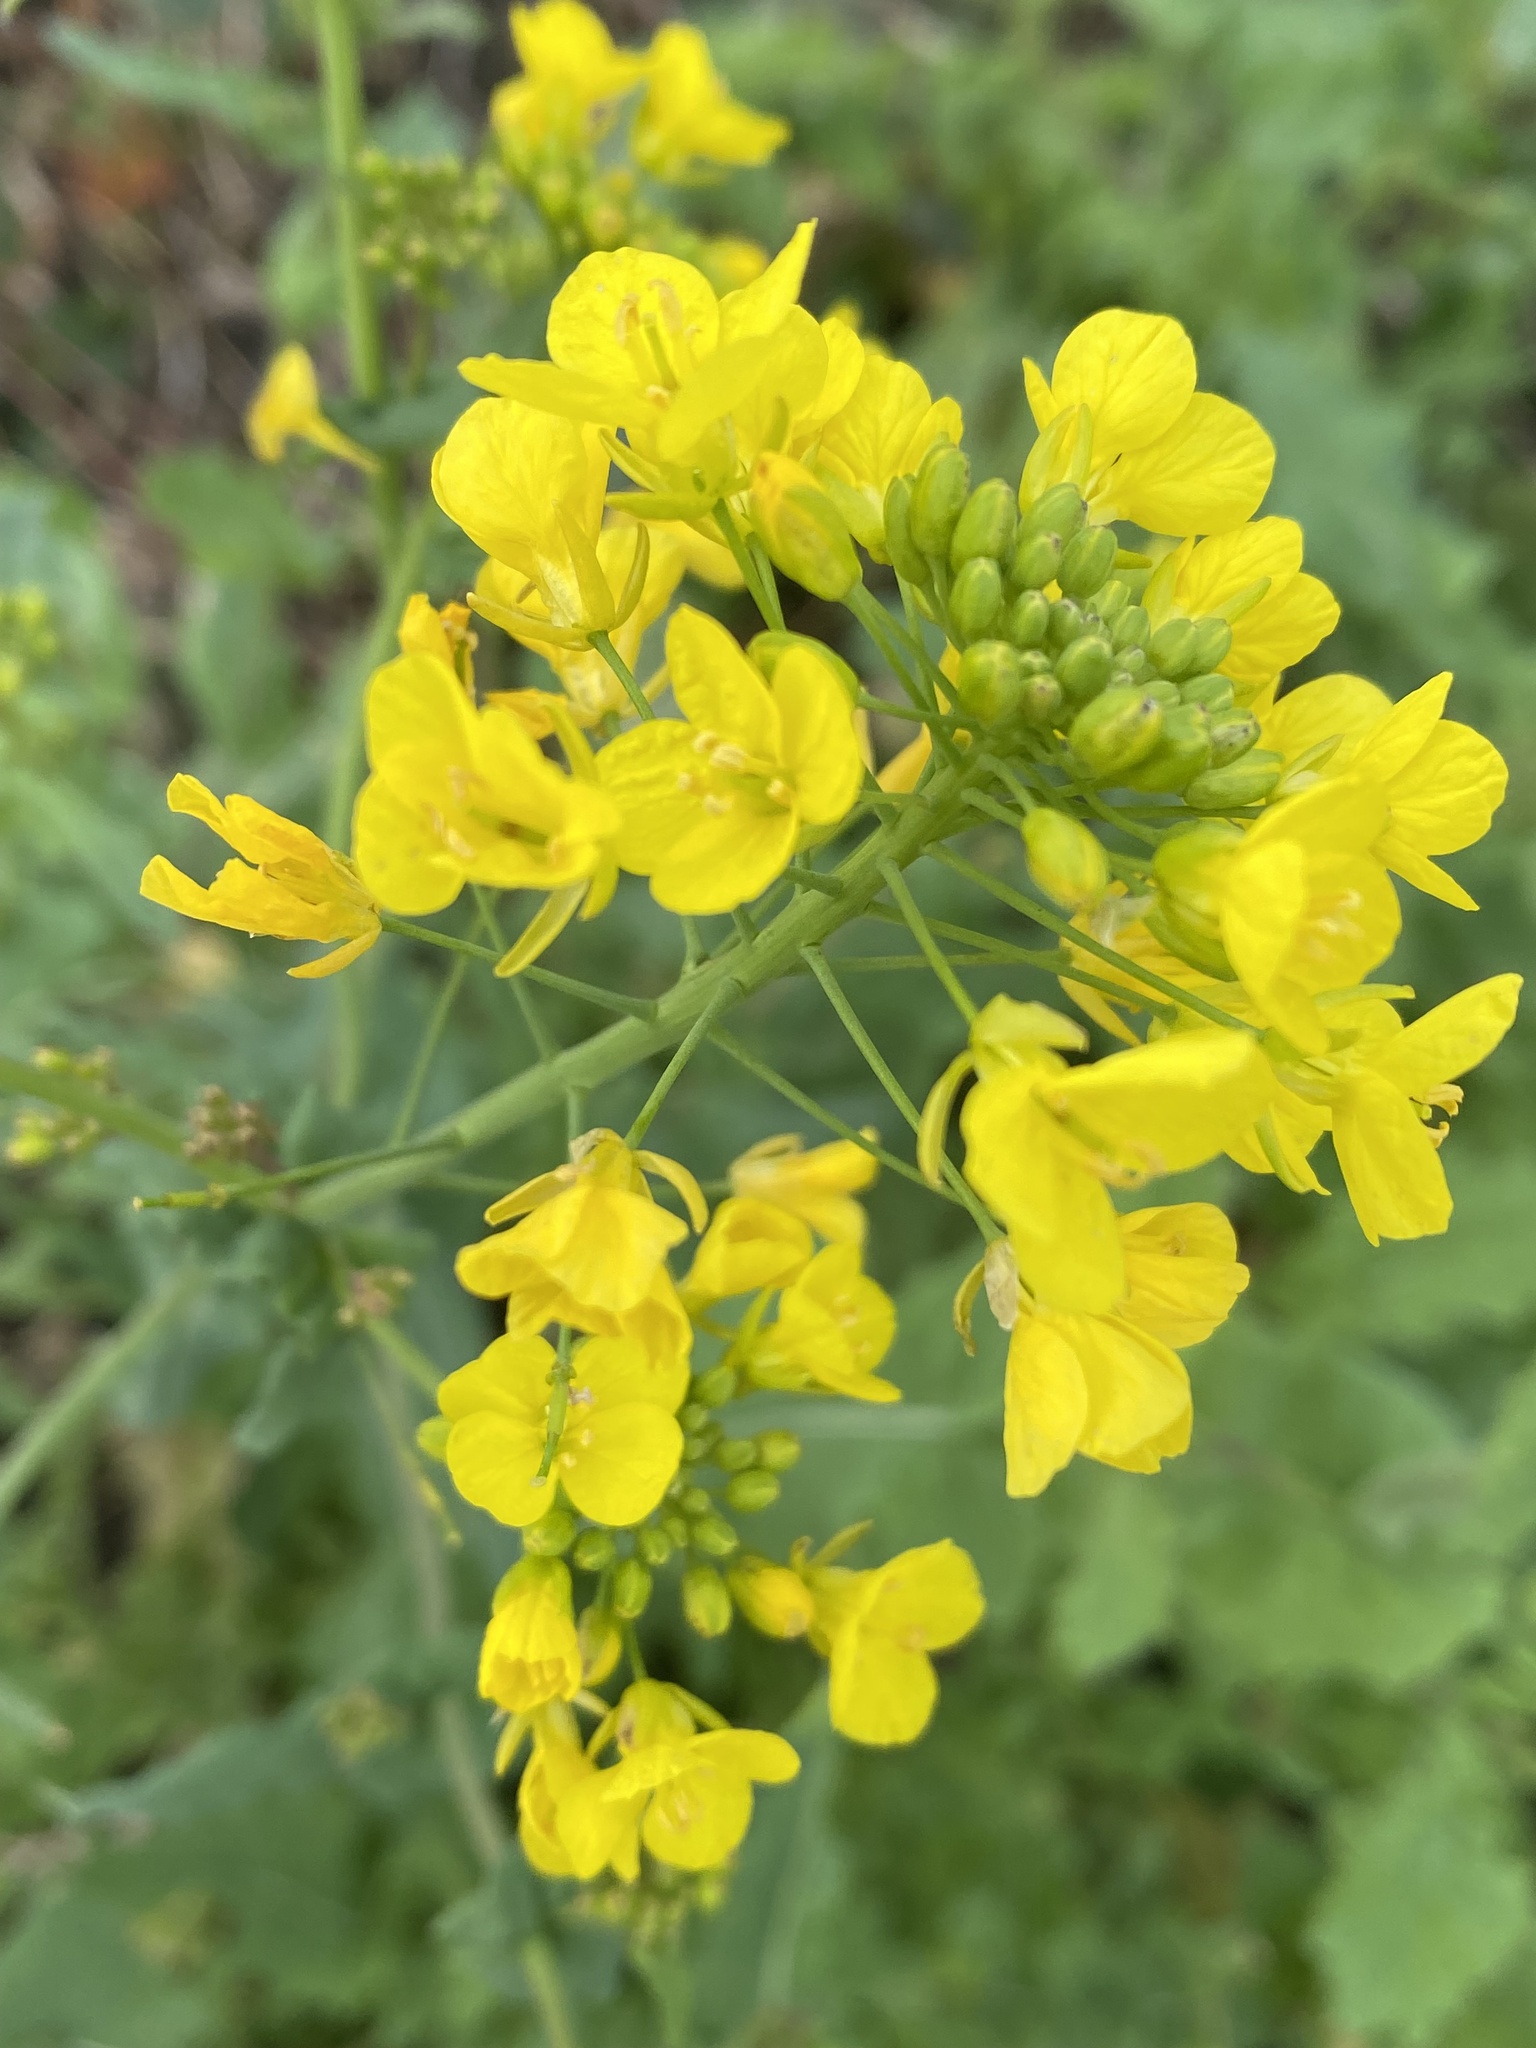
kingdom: Plantae
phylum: Tracheophyta
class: Magnoliopsida
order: Brassicales
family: Brassicaceae
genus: Brassica
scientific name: Brassica rapa
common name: Field mustard
